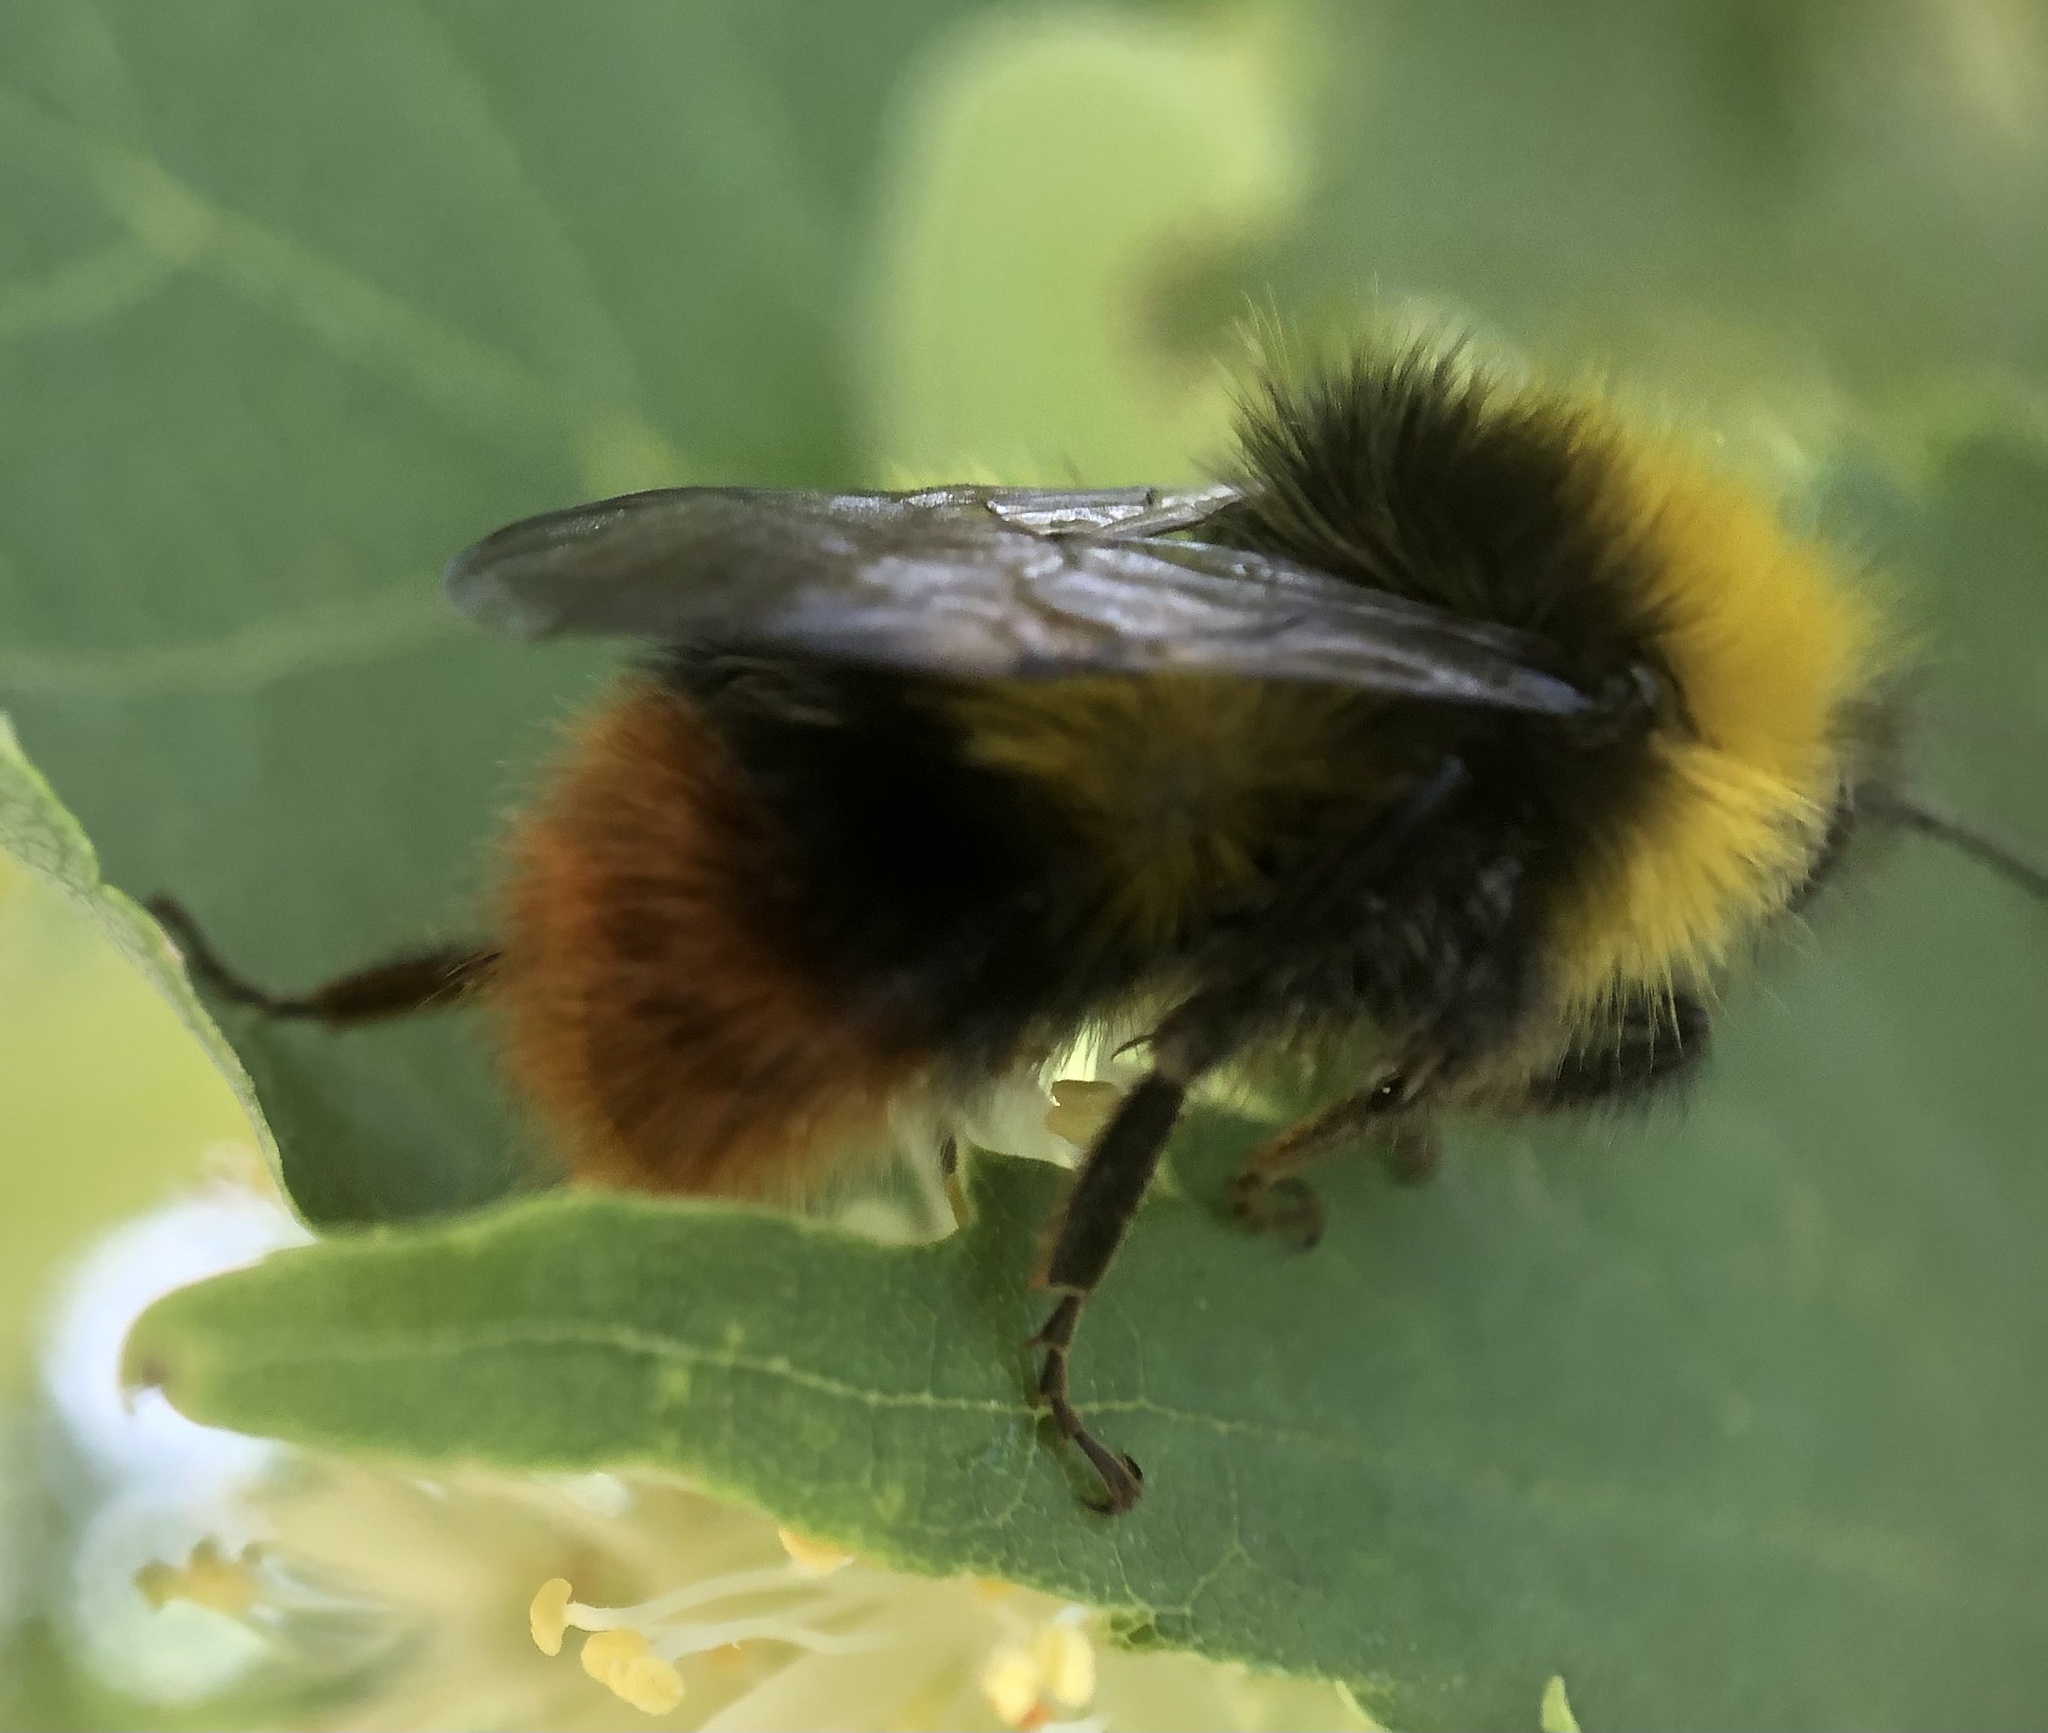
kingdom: Animalia
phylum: Arthropoda
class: Insecta
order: Hymenoptera
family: Apidae
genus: Bombus
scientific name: Bombus pratorum
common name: Early humble-bee
